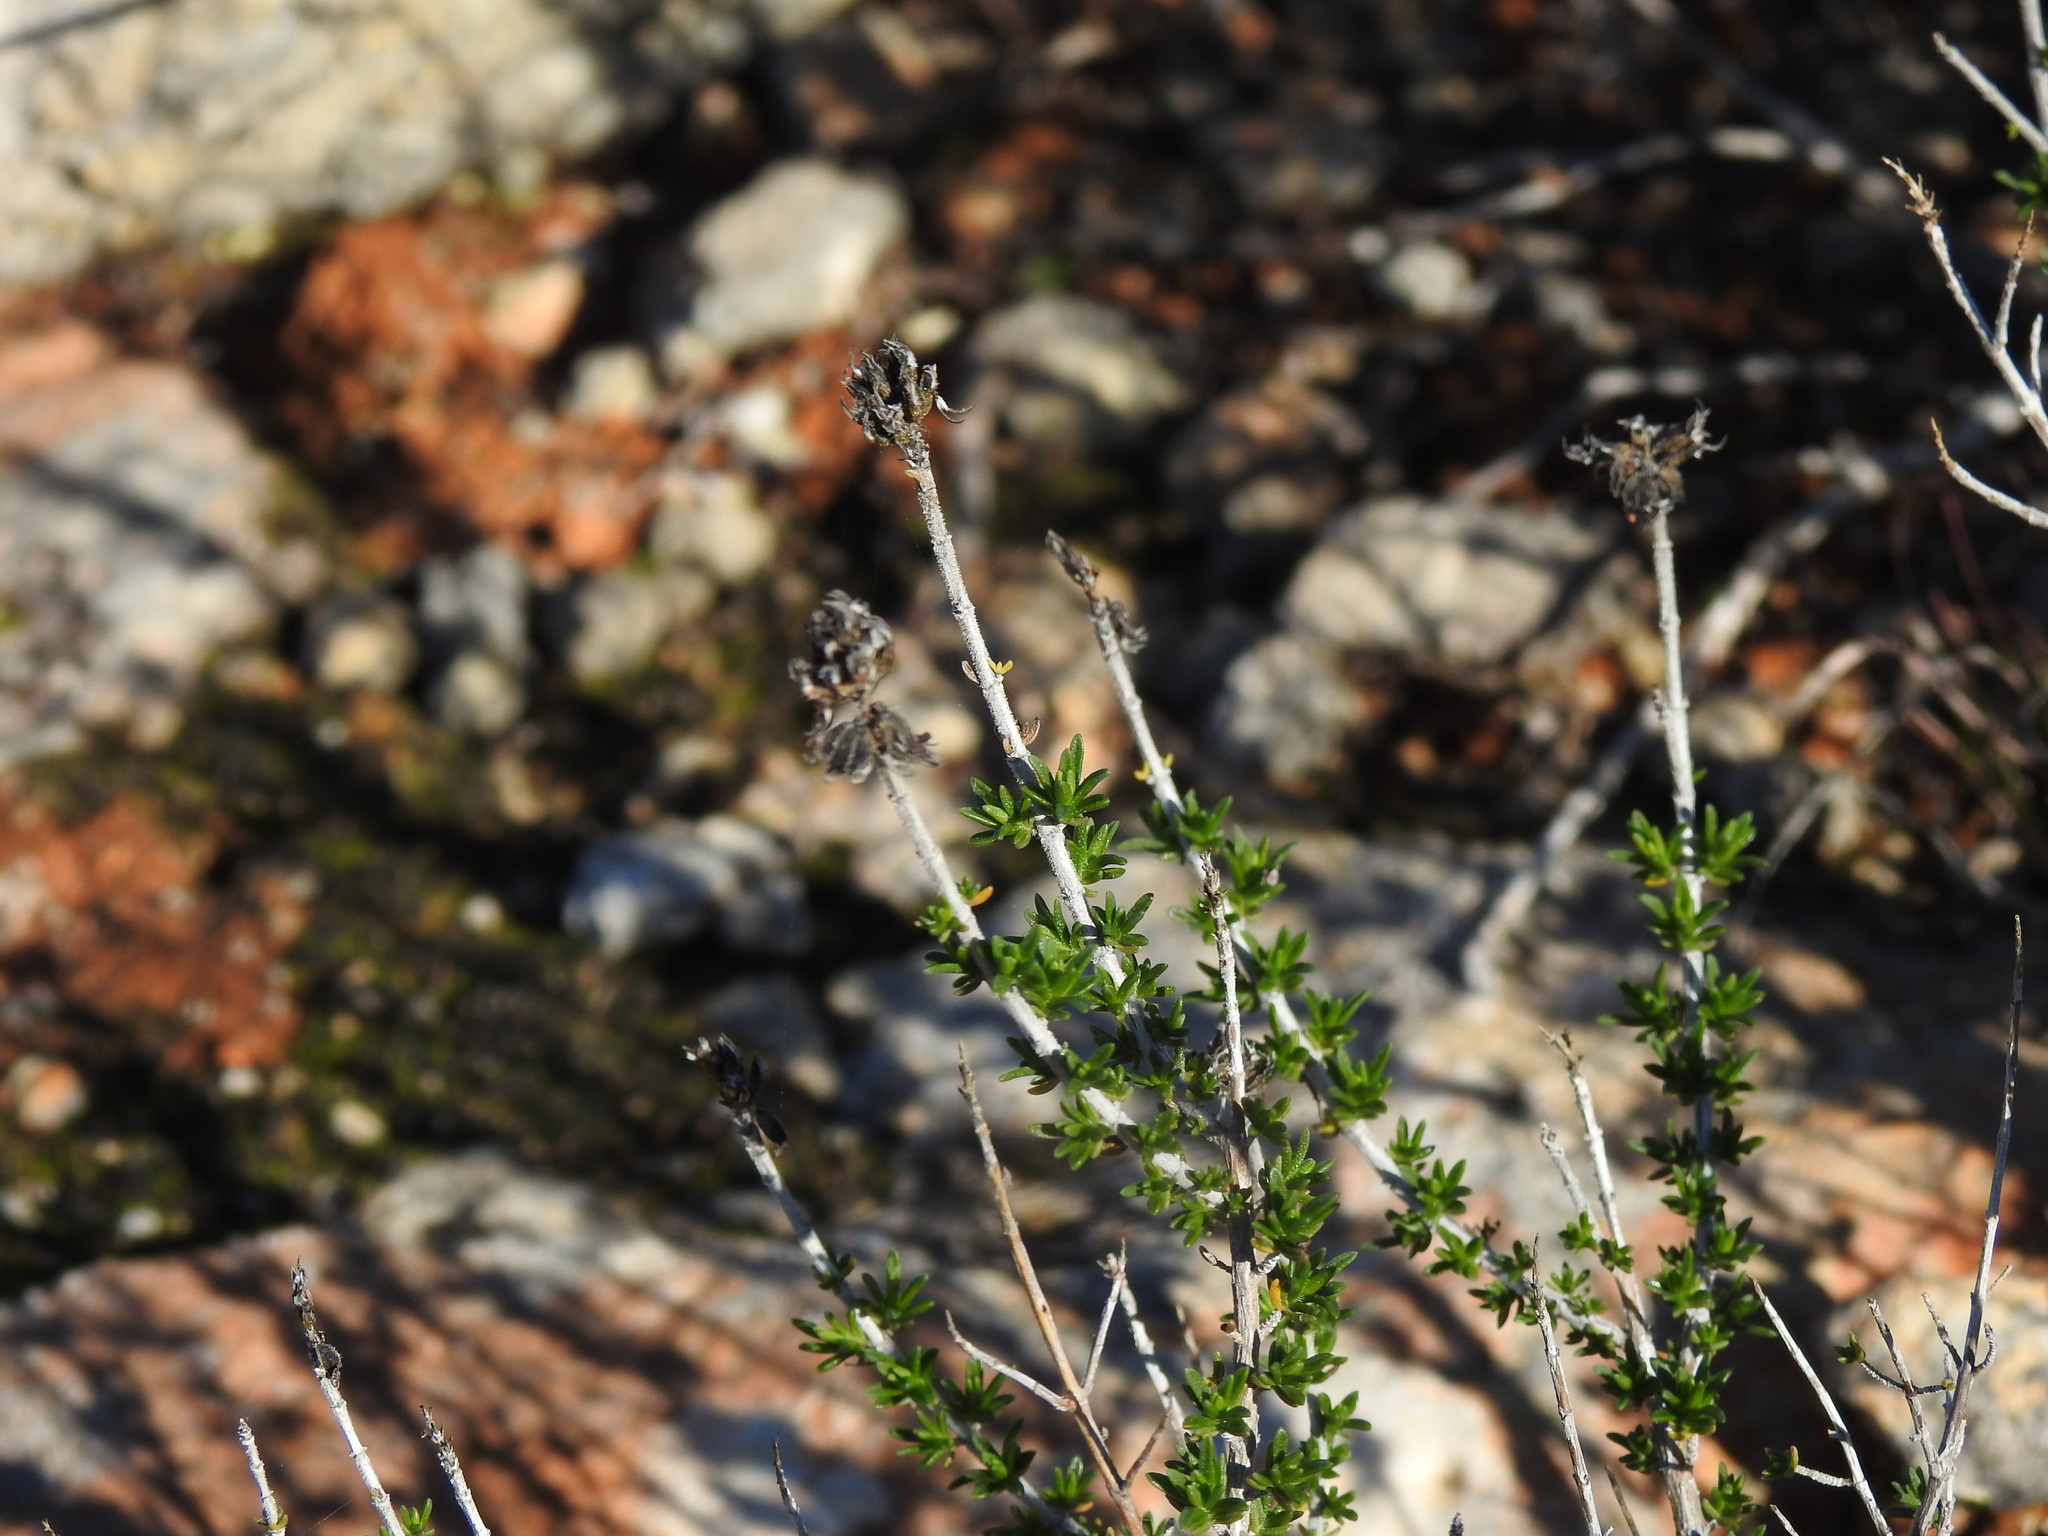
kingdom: Plantae
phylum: Tracheophyta
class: Magnoliopsida
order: Lamiales
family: Lamiaceae
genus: Thymbra
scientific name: Thymbra capitata
